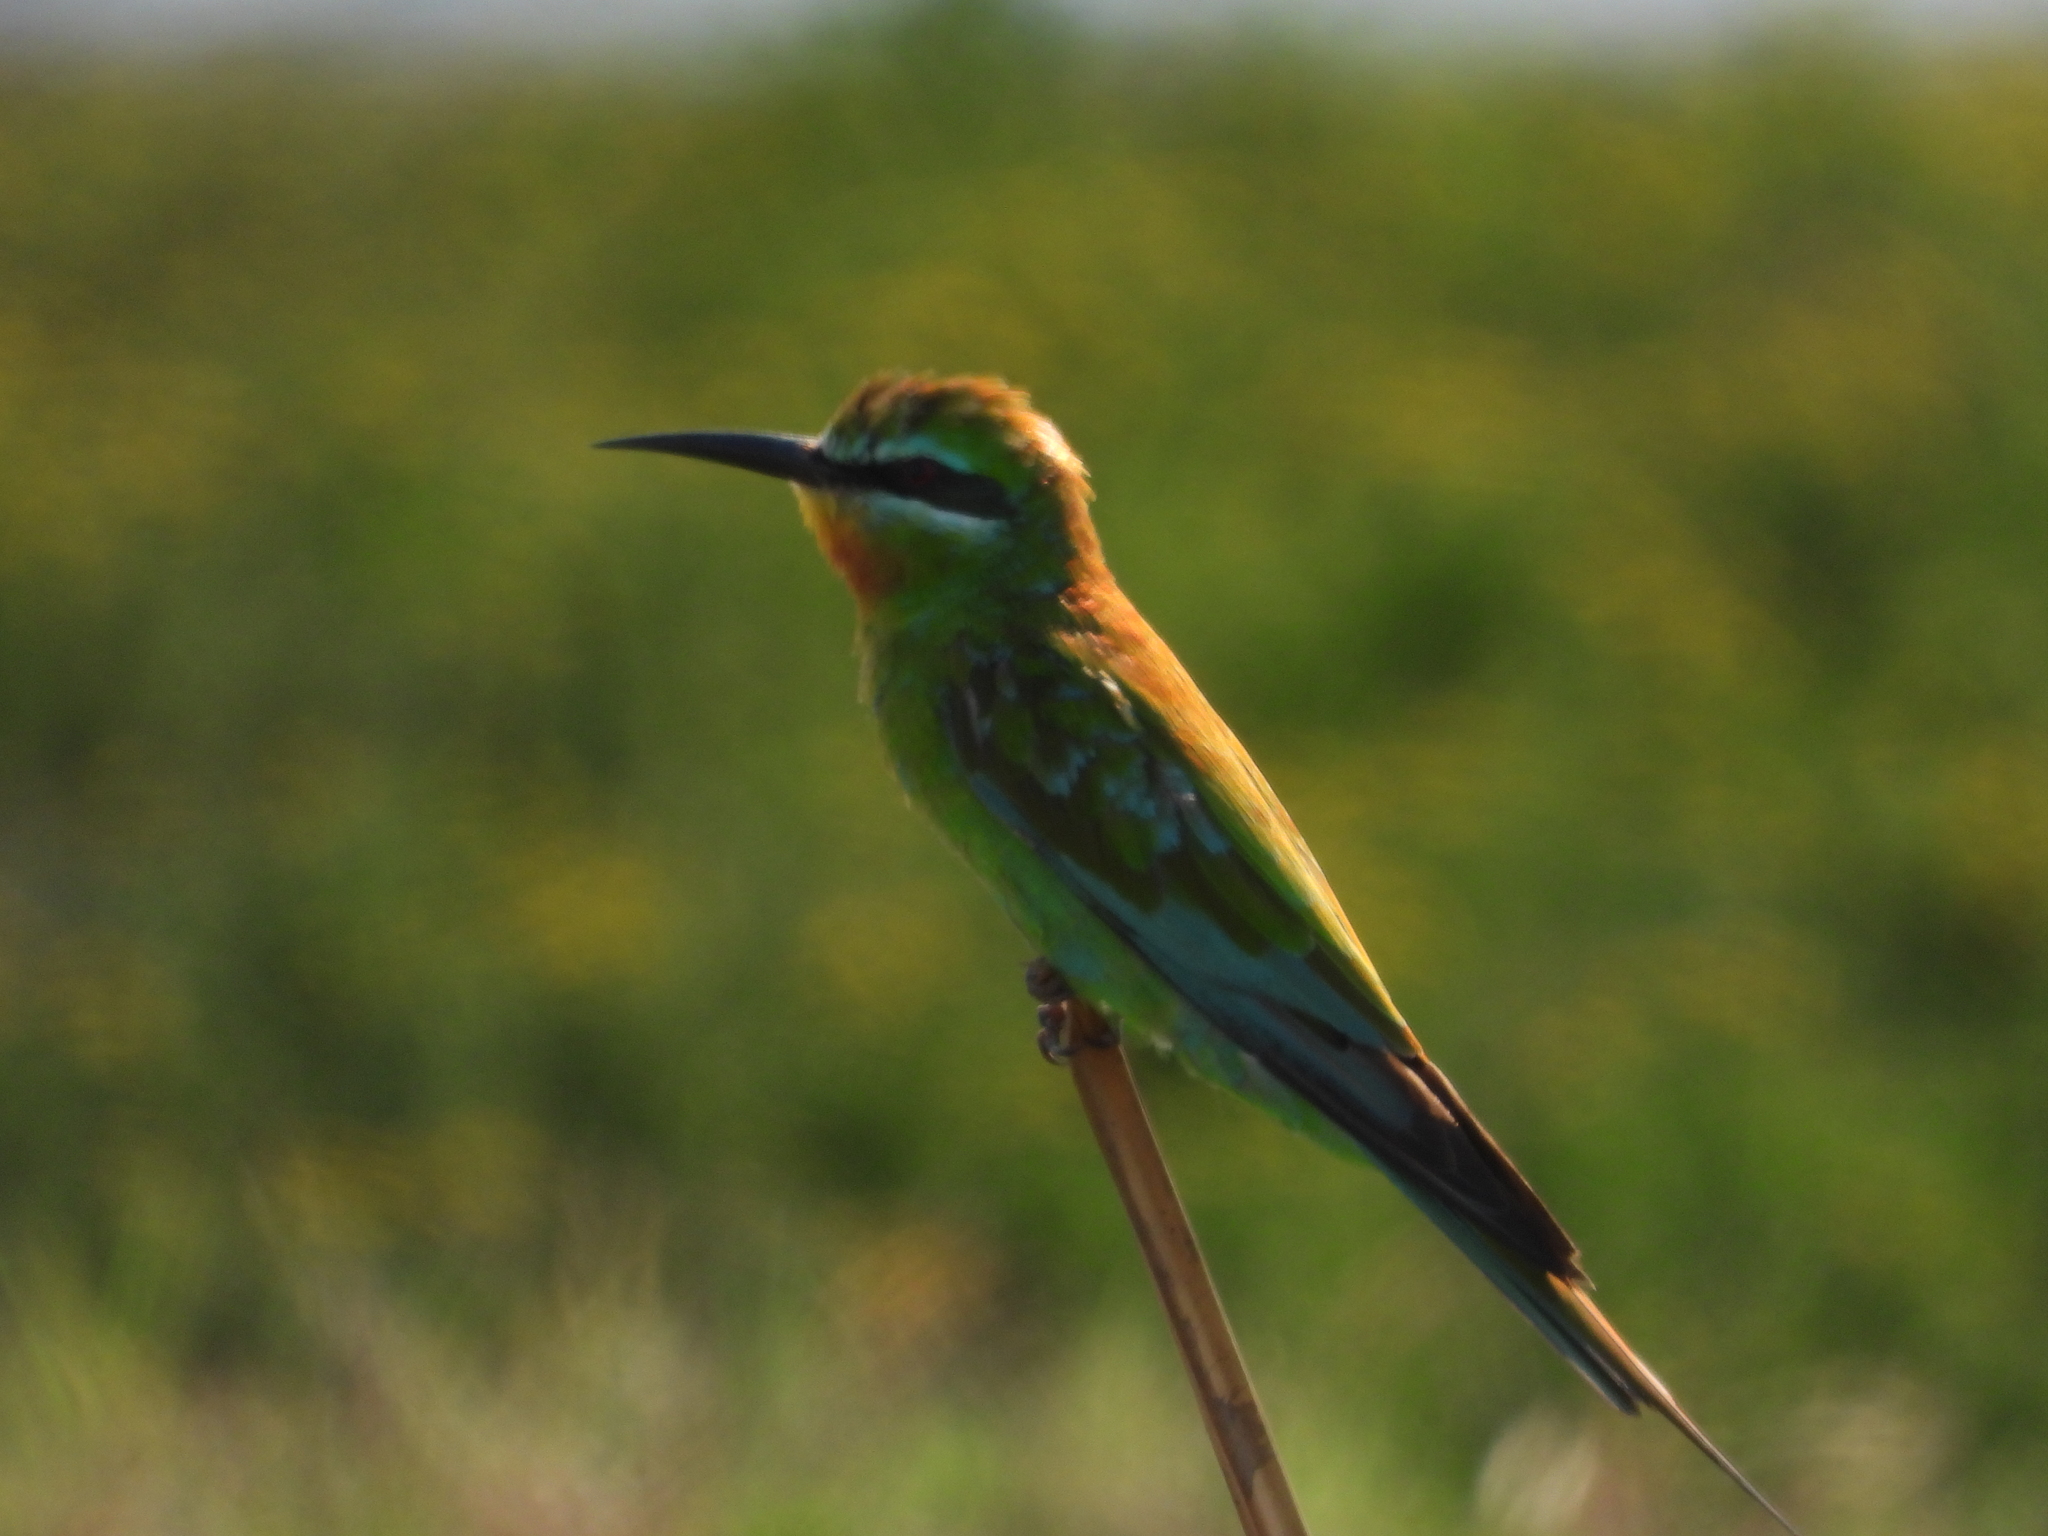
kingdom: Animalia
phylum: Chordata
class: Aves
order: Coraciiformes
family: Meropidae
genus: Merops
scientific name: Merops persicus
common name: Blue-cheeked bee-eater
